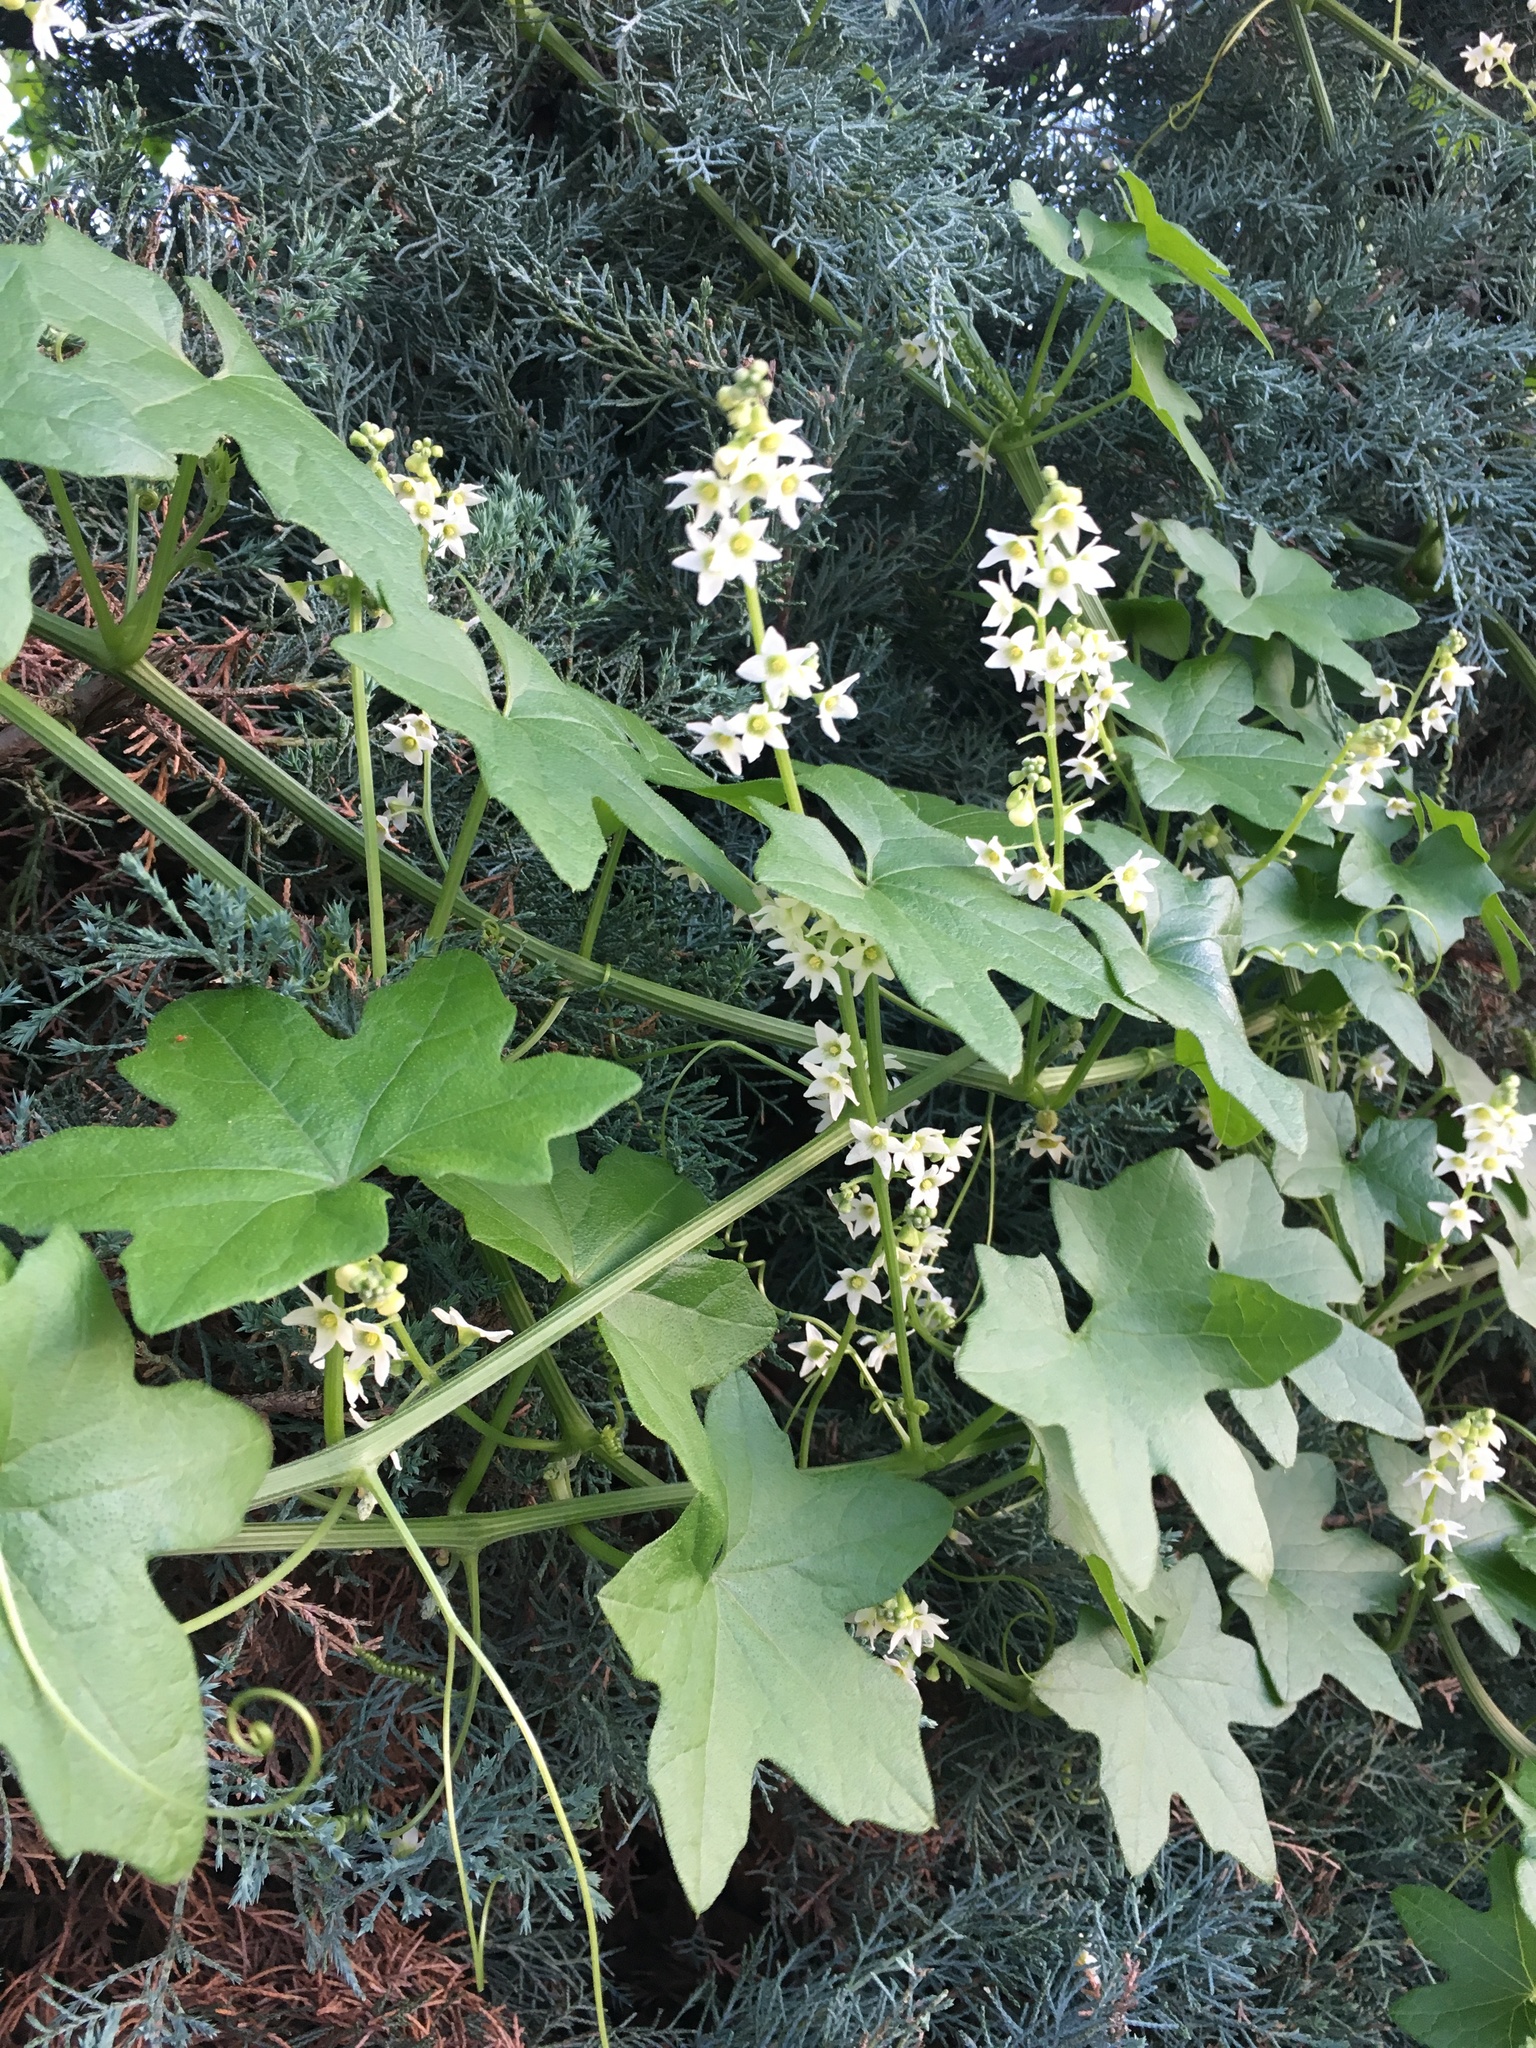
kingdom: Plantae
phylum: Tracheophyta
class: Magnoliopsida
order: Cucurbitales
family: Cucurbitaceae
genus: Marah
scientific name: Marah macrocarpa
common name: Cucamonga manroot
